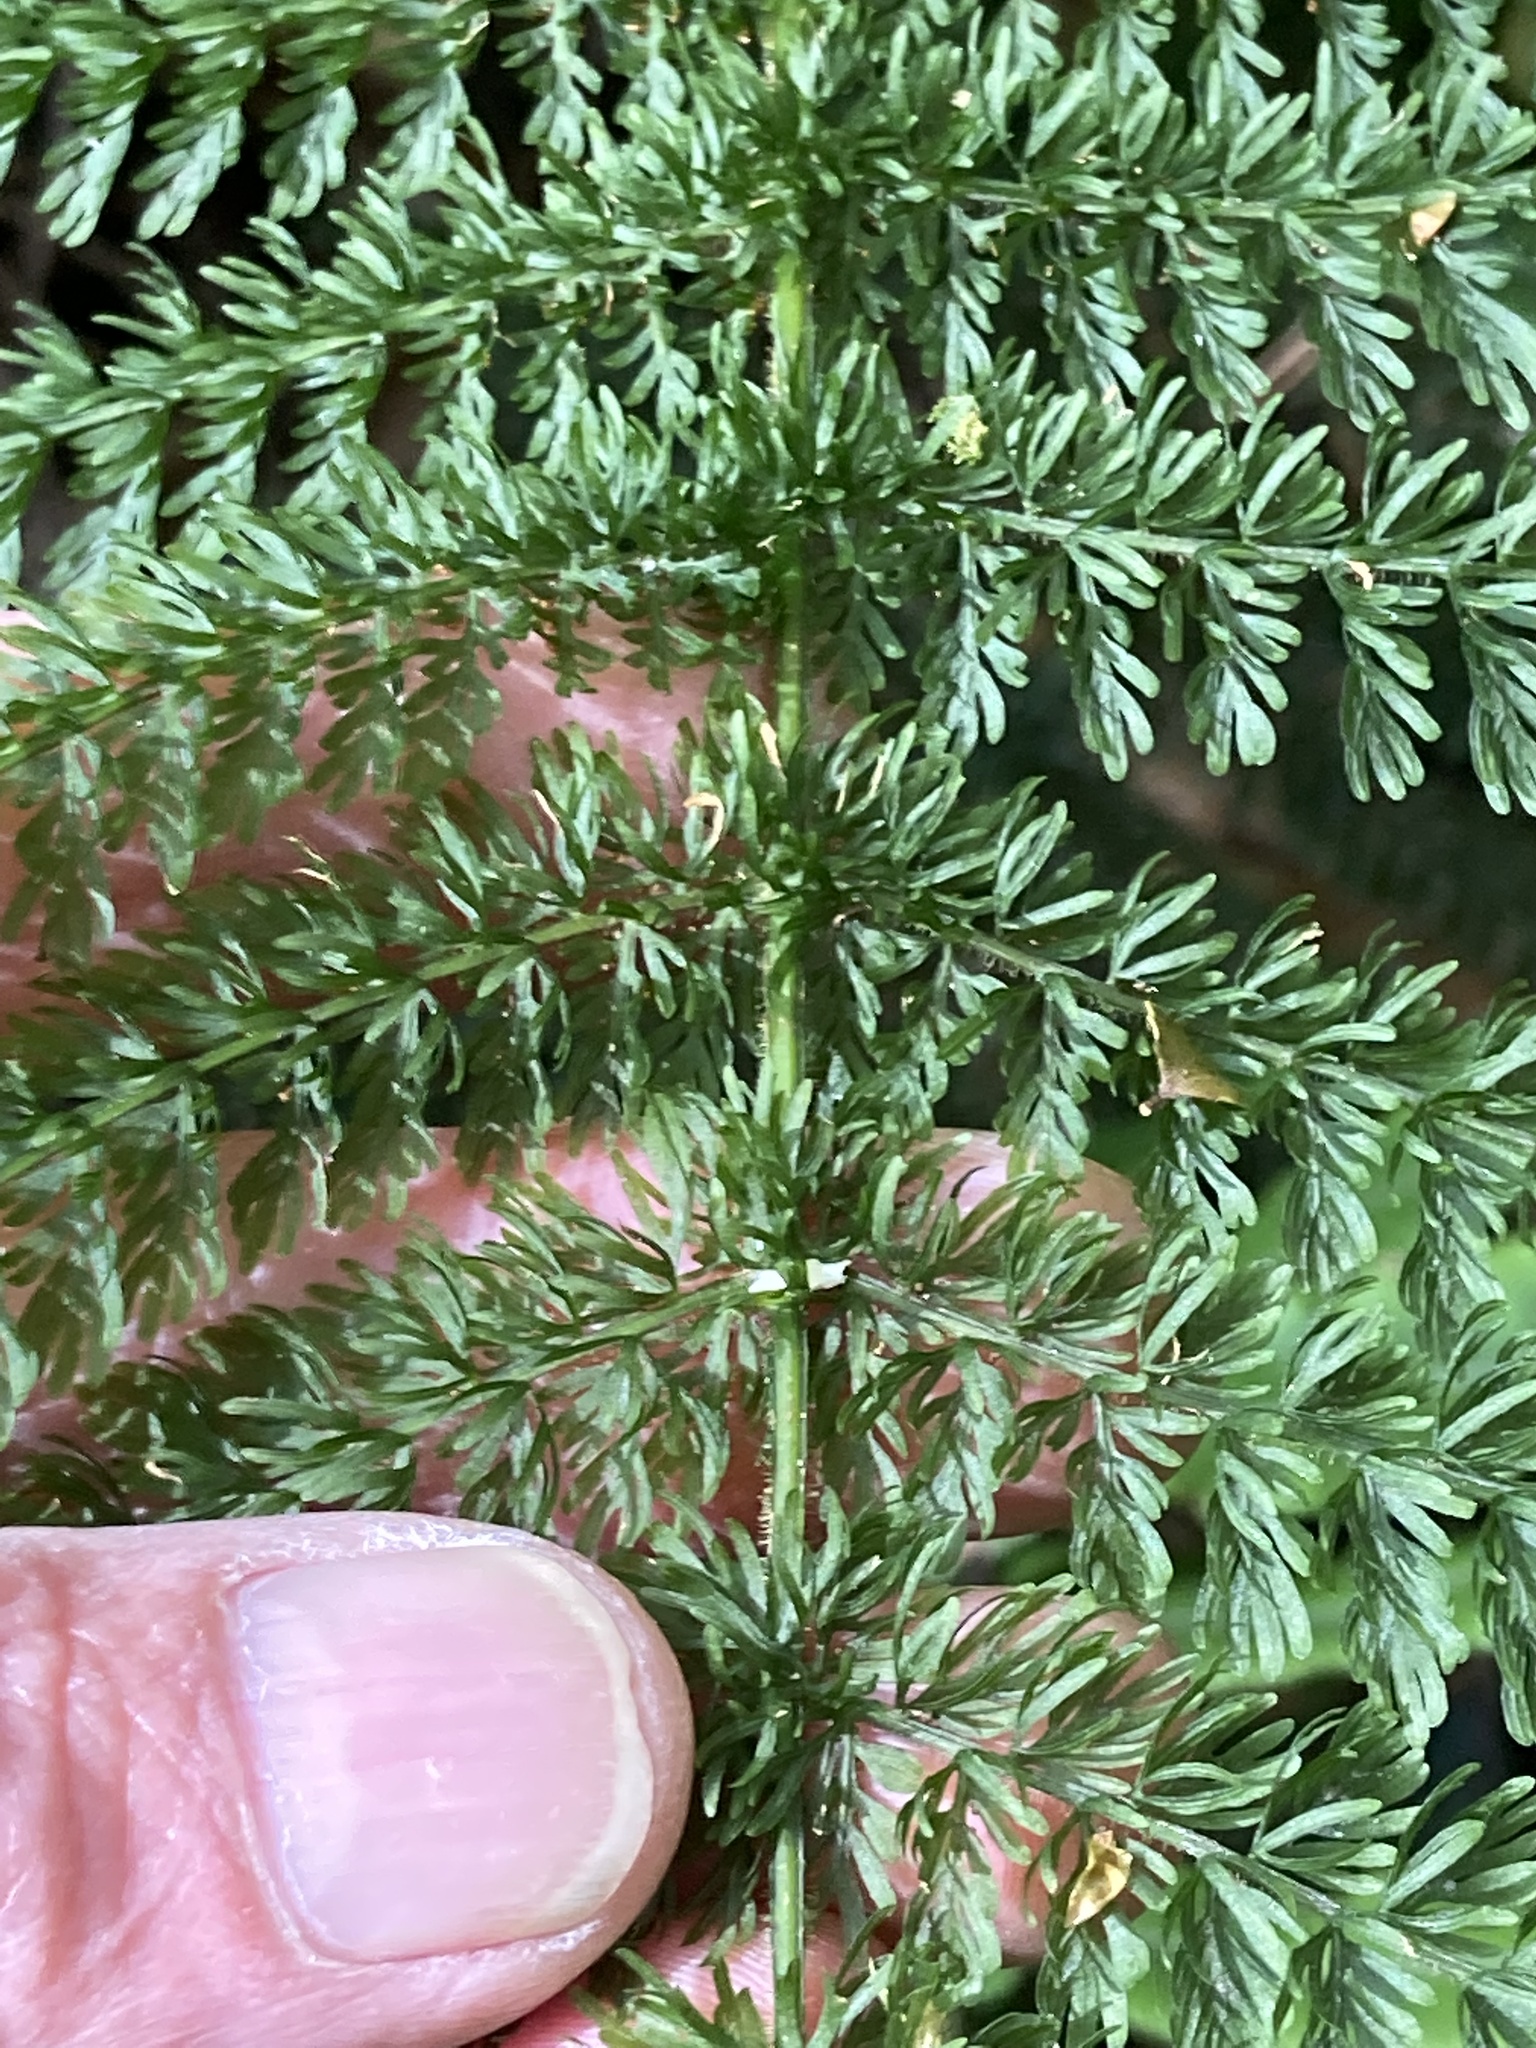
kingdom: Plantae
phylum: Tracheophyta
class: Polypodiopsida
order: Osmundales
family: Osmundaceae
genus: Leptopteris
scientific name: Leptopteris superba
